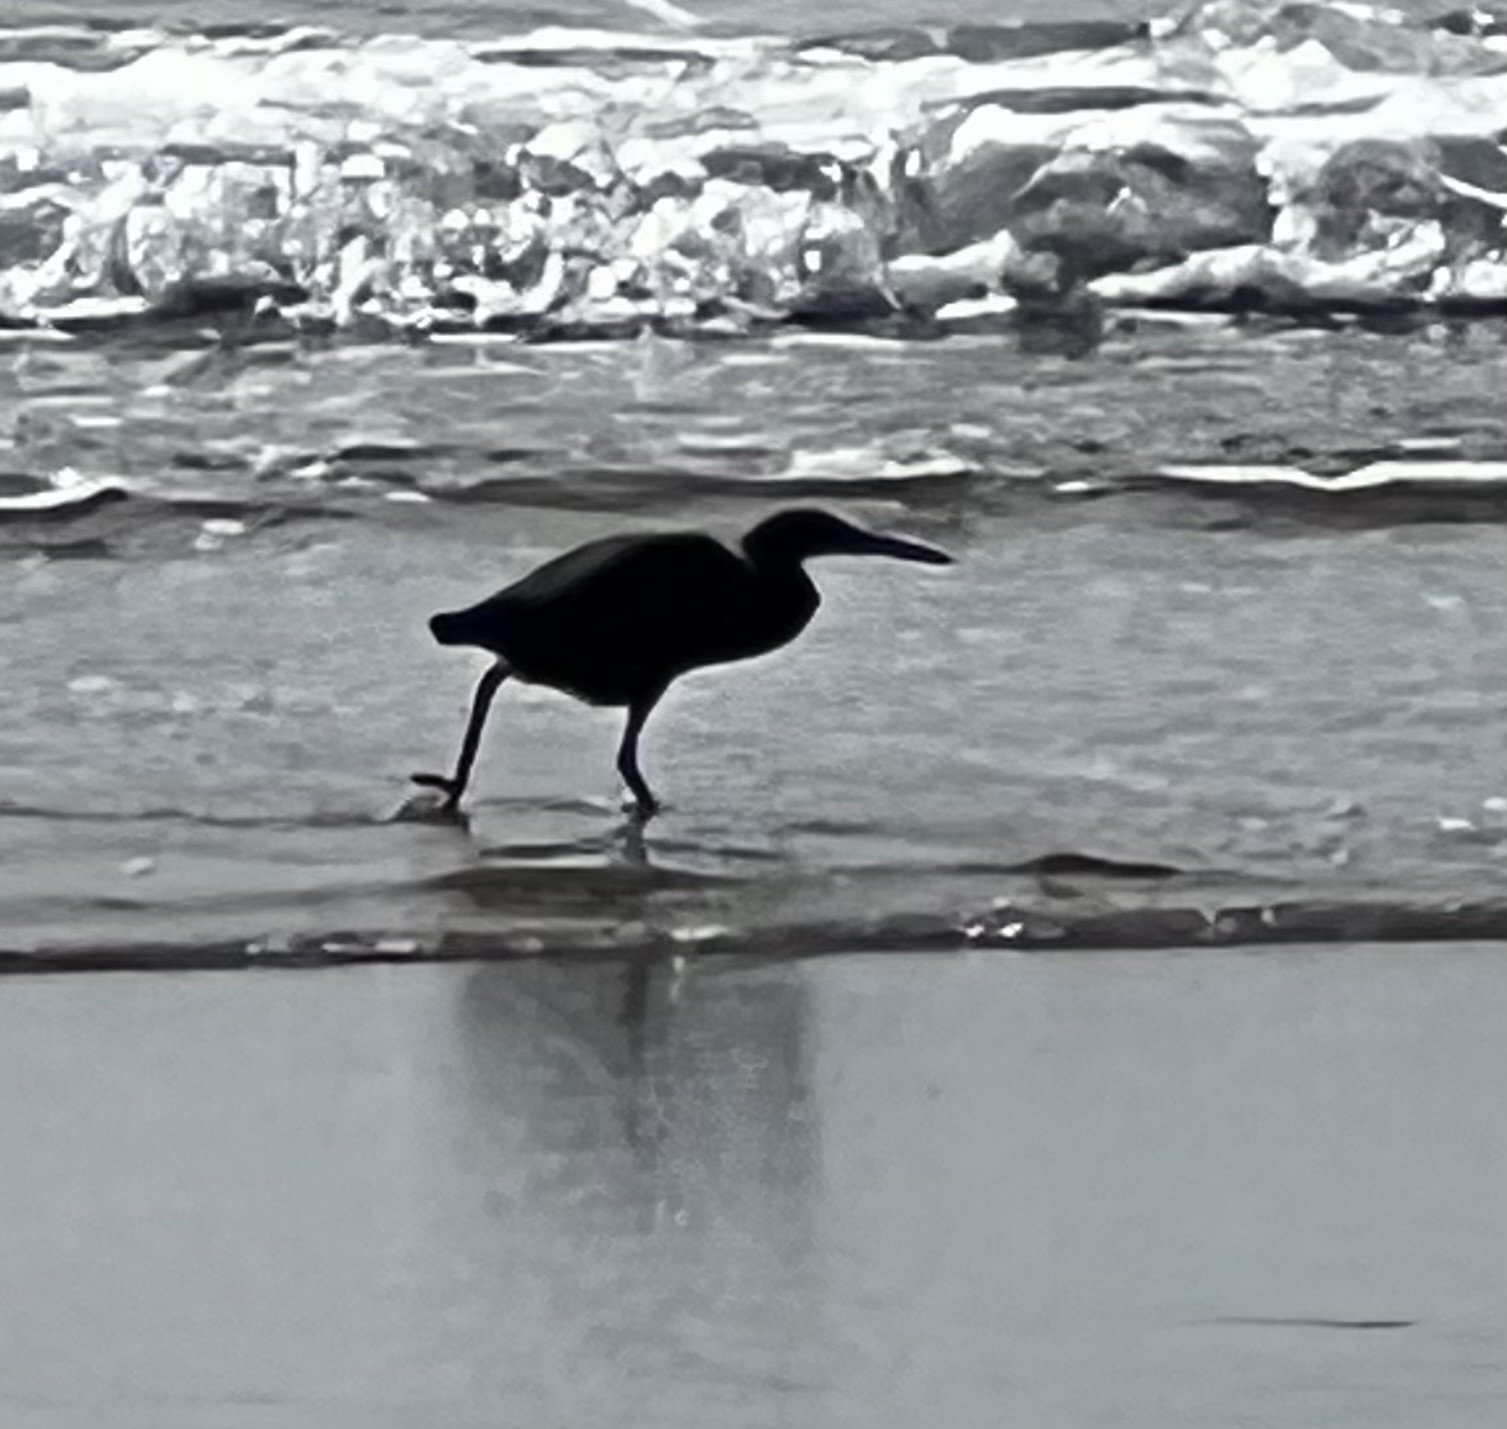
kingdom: Animalia
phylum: Chordata
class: Aves
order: Pelecaniformes
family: Ardeidae
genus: Egretta
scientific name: Egretta sacra
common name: Pacific reef heron
